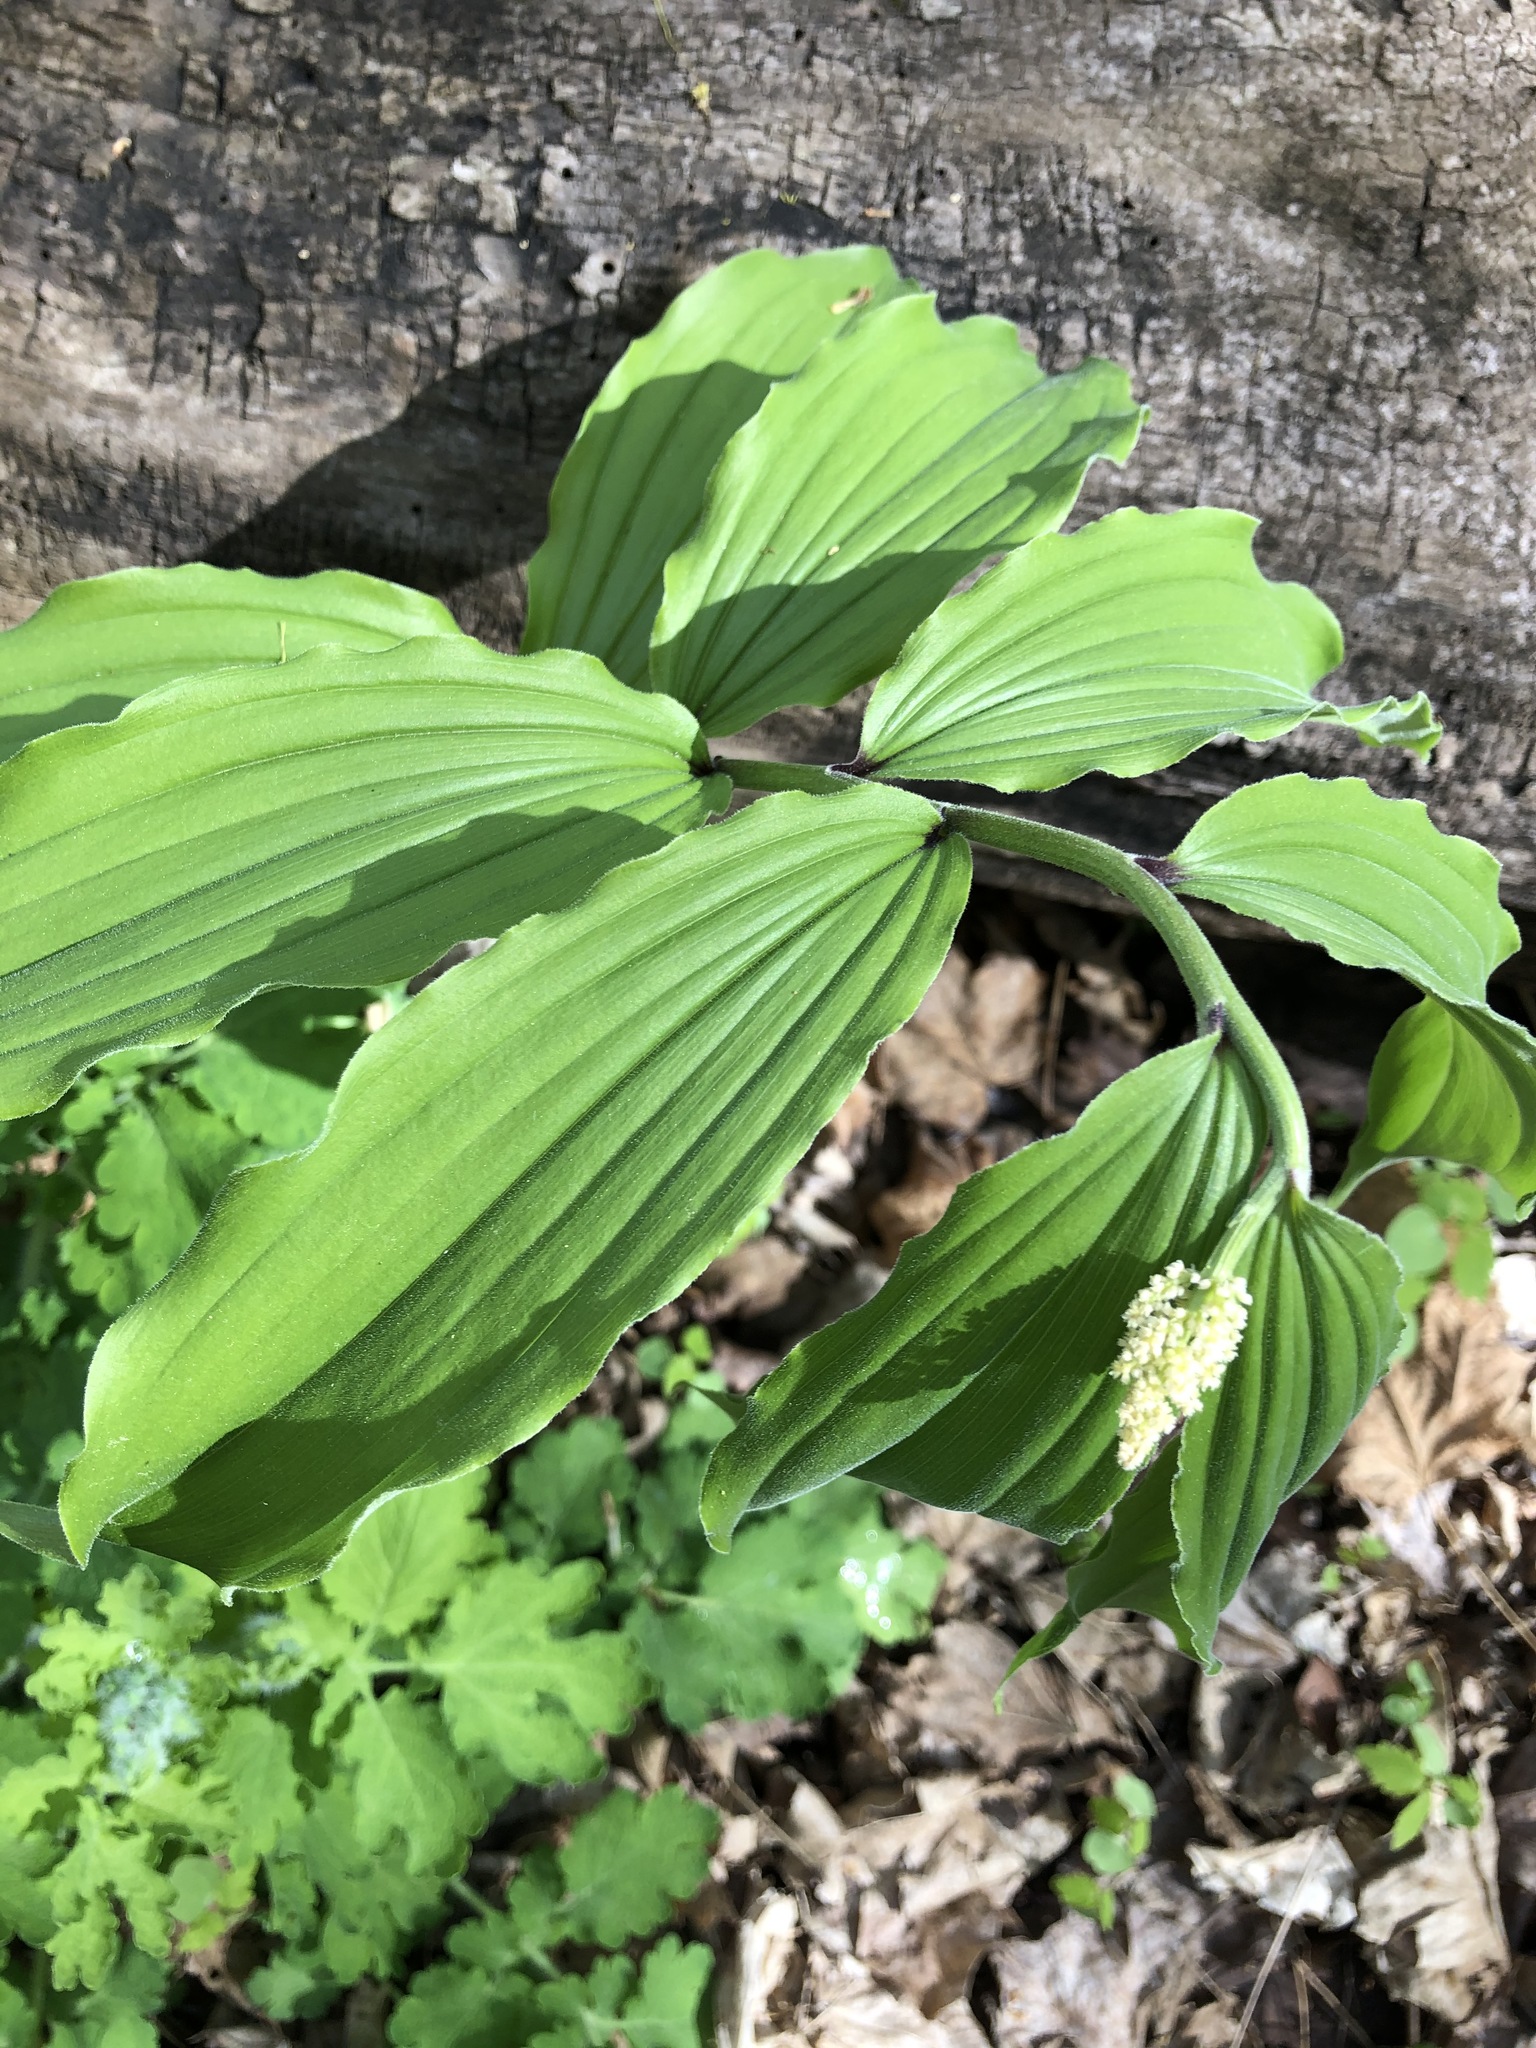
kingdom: Plantae
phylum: Tracheophyta
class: Liliopsida
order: Asparagales
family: Asparagaceae
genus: Maianthemum
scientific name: Maianthemum racemosum
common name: False spikenard
